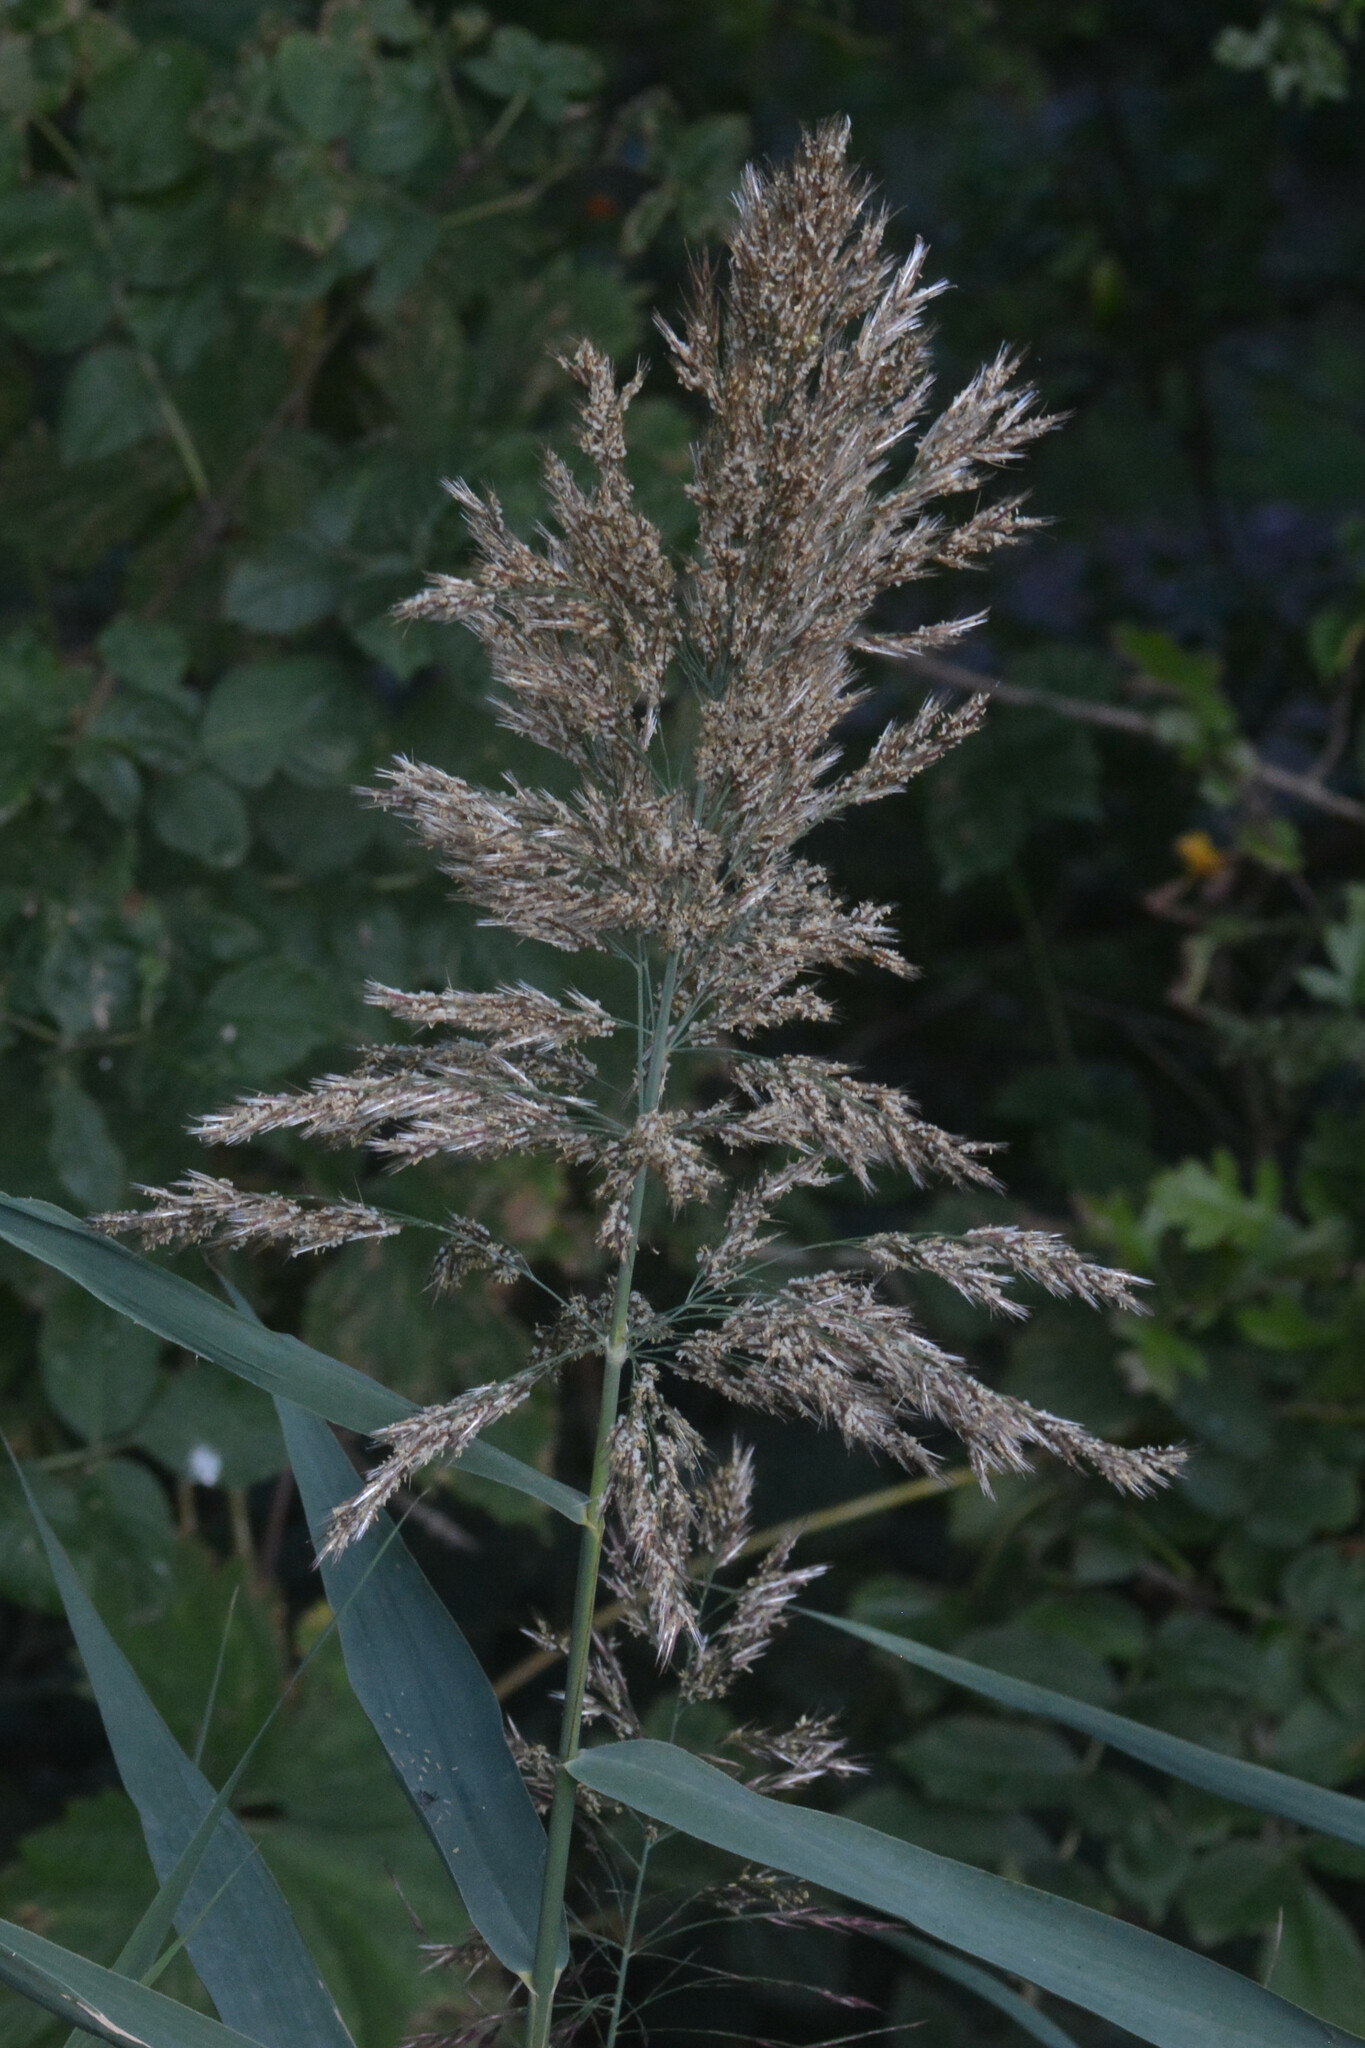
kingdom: Plantae
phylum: Tracheophyta
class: Liliopsida
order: Poales
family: Poaceae
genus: Phragmites
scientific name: Phragmites australis
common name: Common reed
